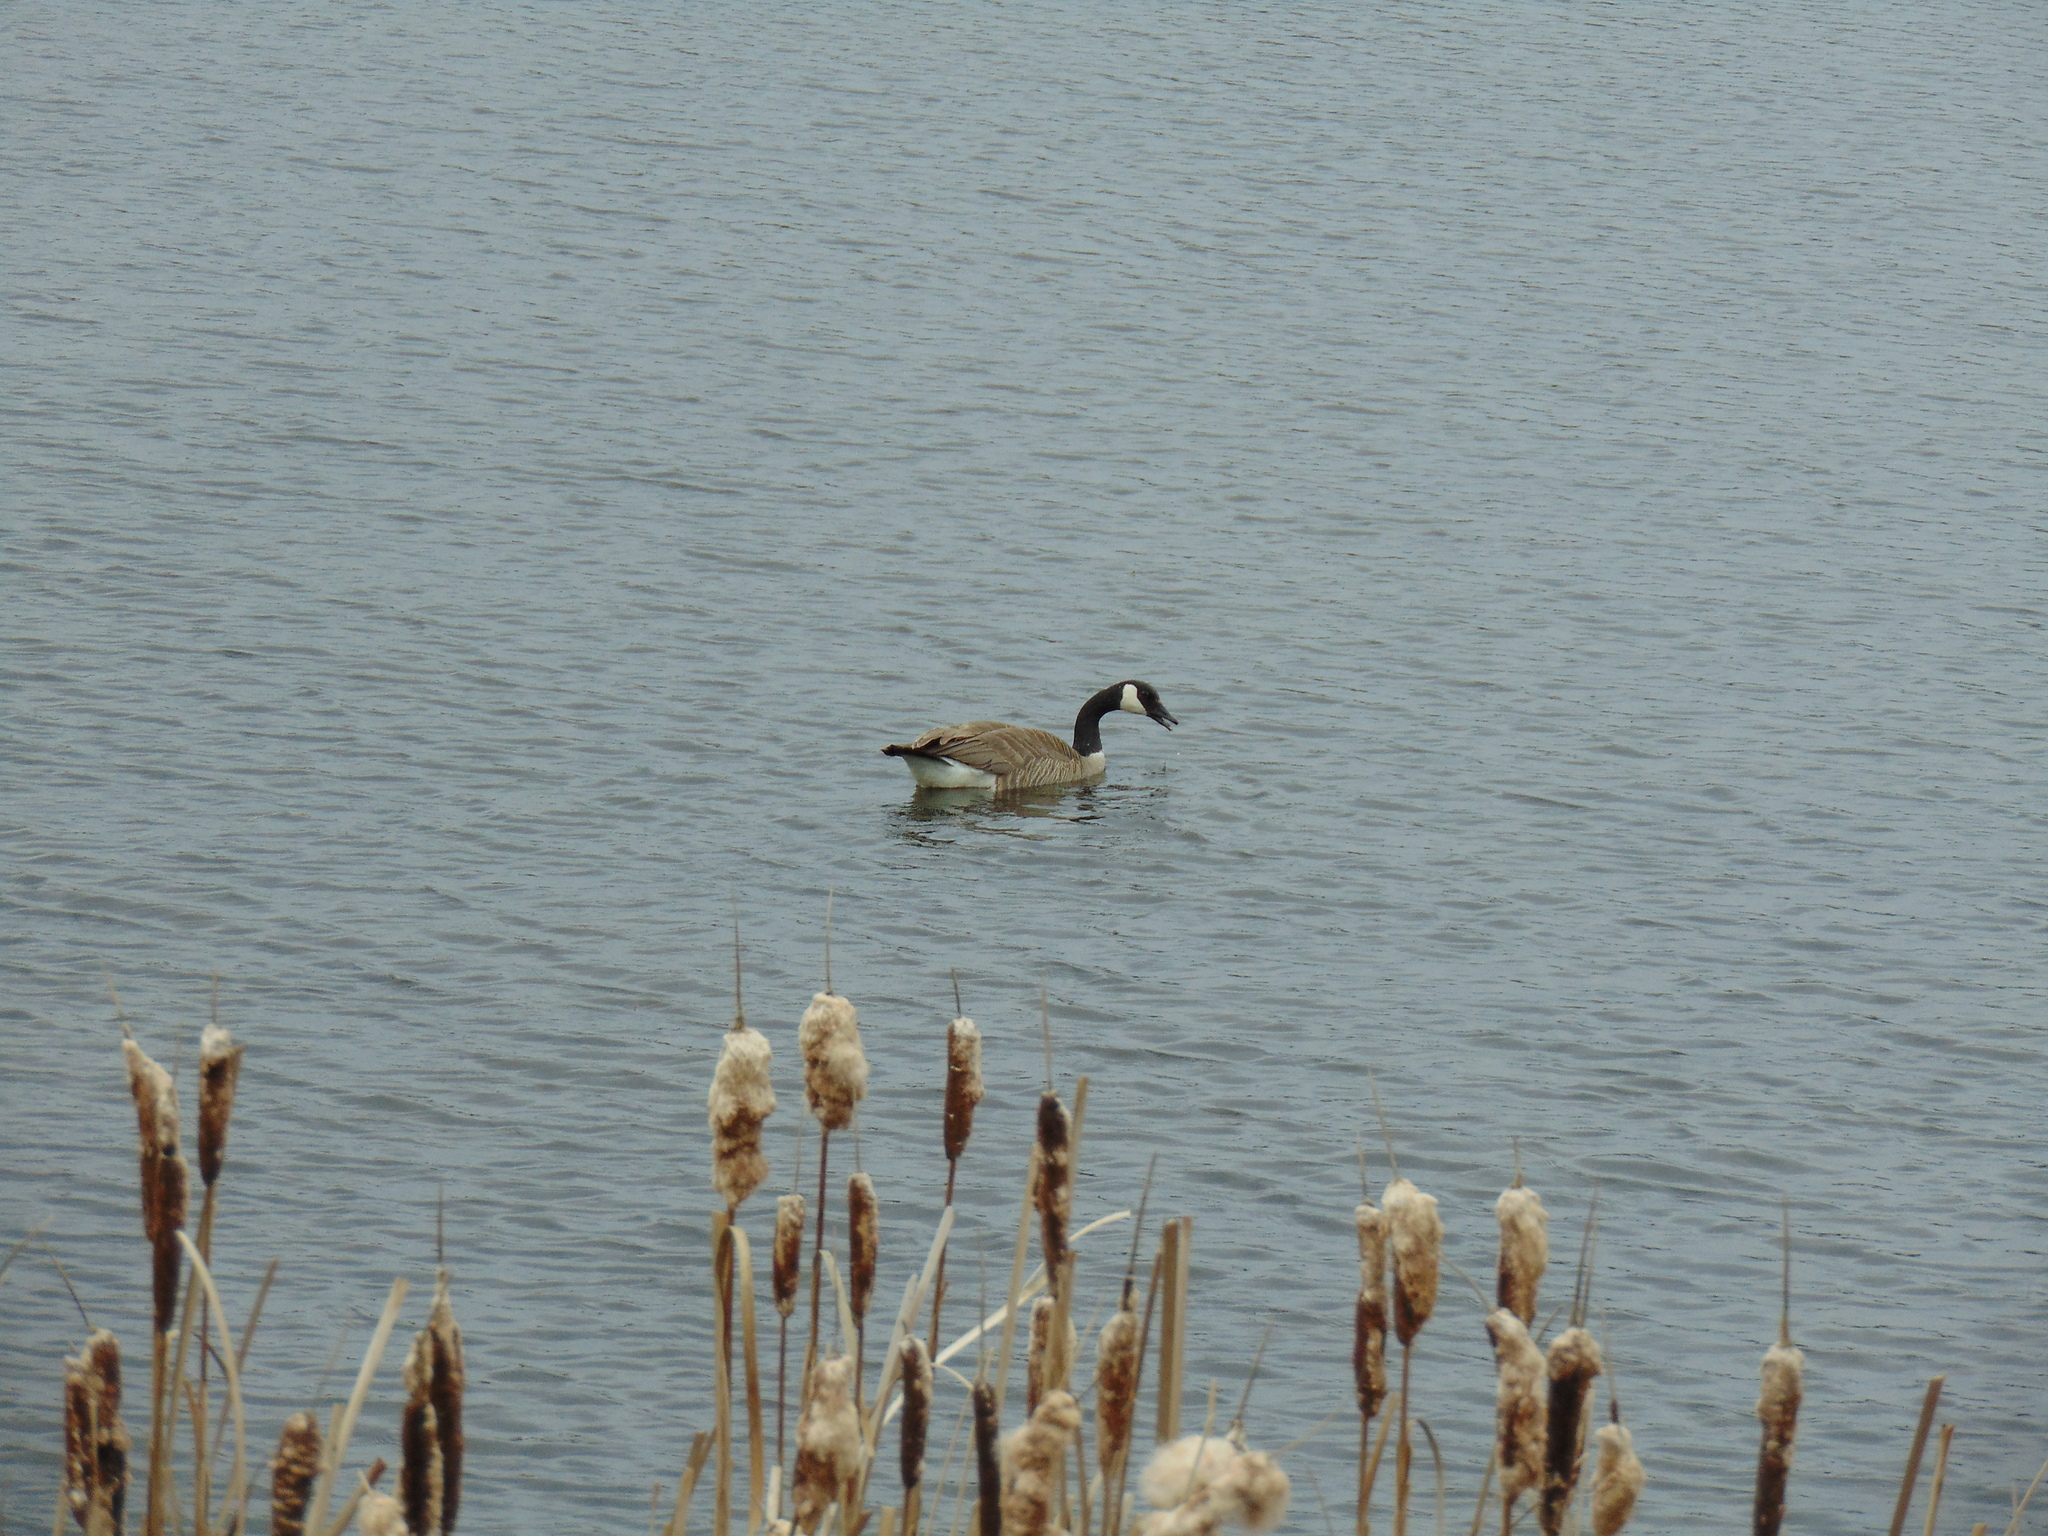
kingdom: Animalia
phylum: Chordata
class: Aves
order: Anseriformes
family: Anatidae
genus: Branta
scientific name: Branta canadensis
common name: Canada goose
